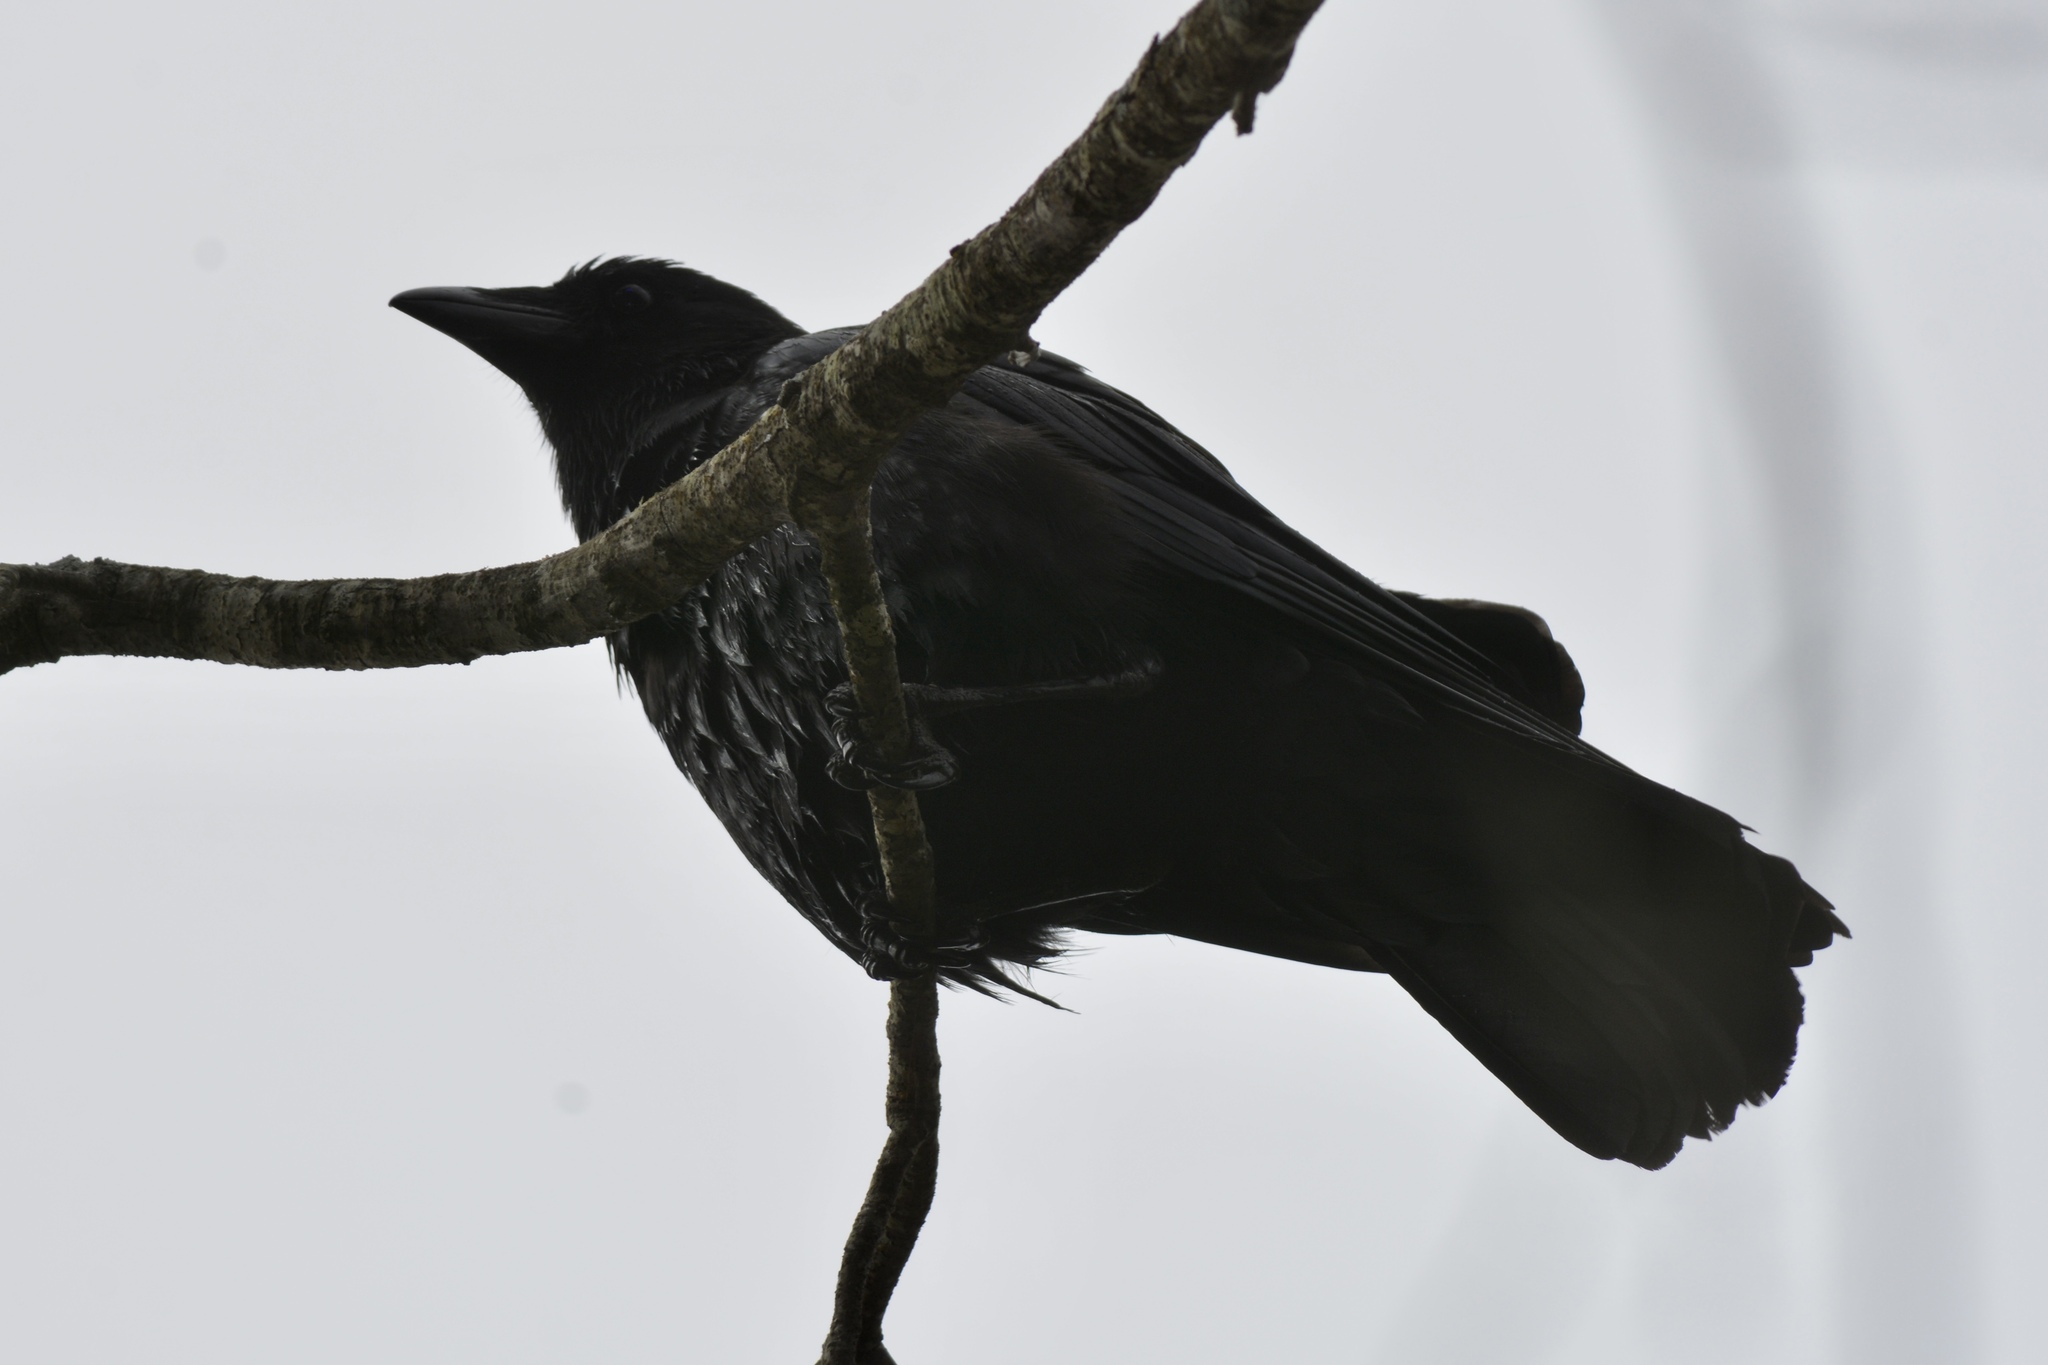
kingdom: Animalia
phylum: Chordata
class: Aves
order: Passeriformes
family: Corvidae
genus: Corvus
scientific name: Corvus
